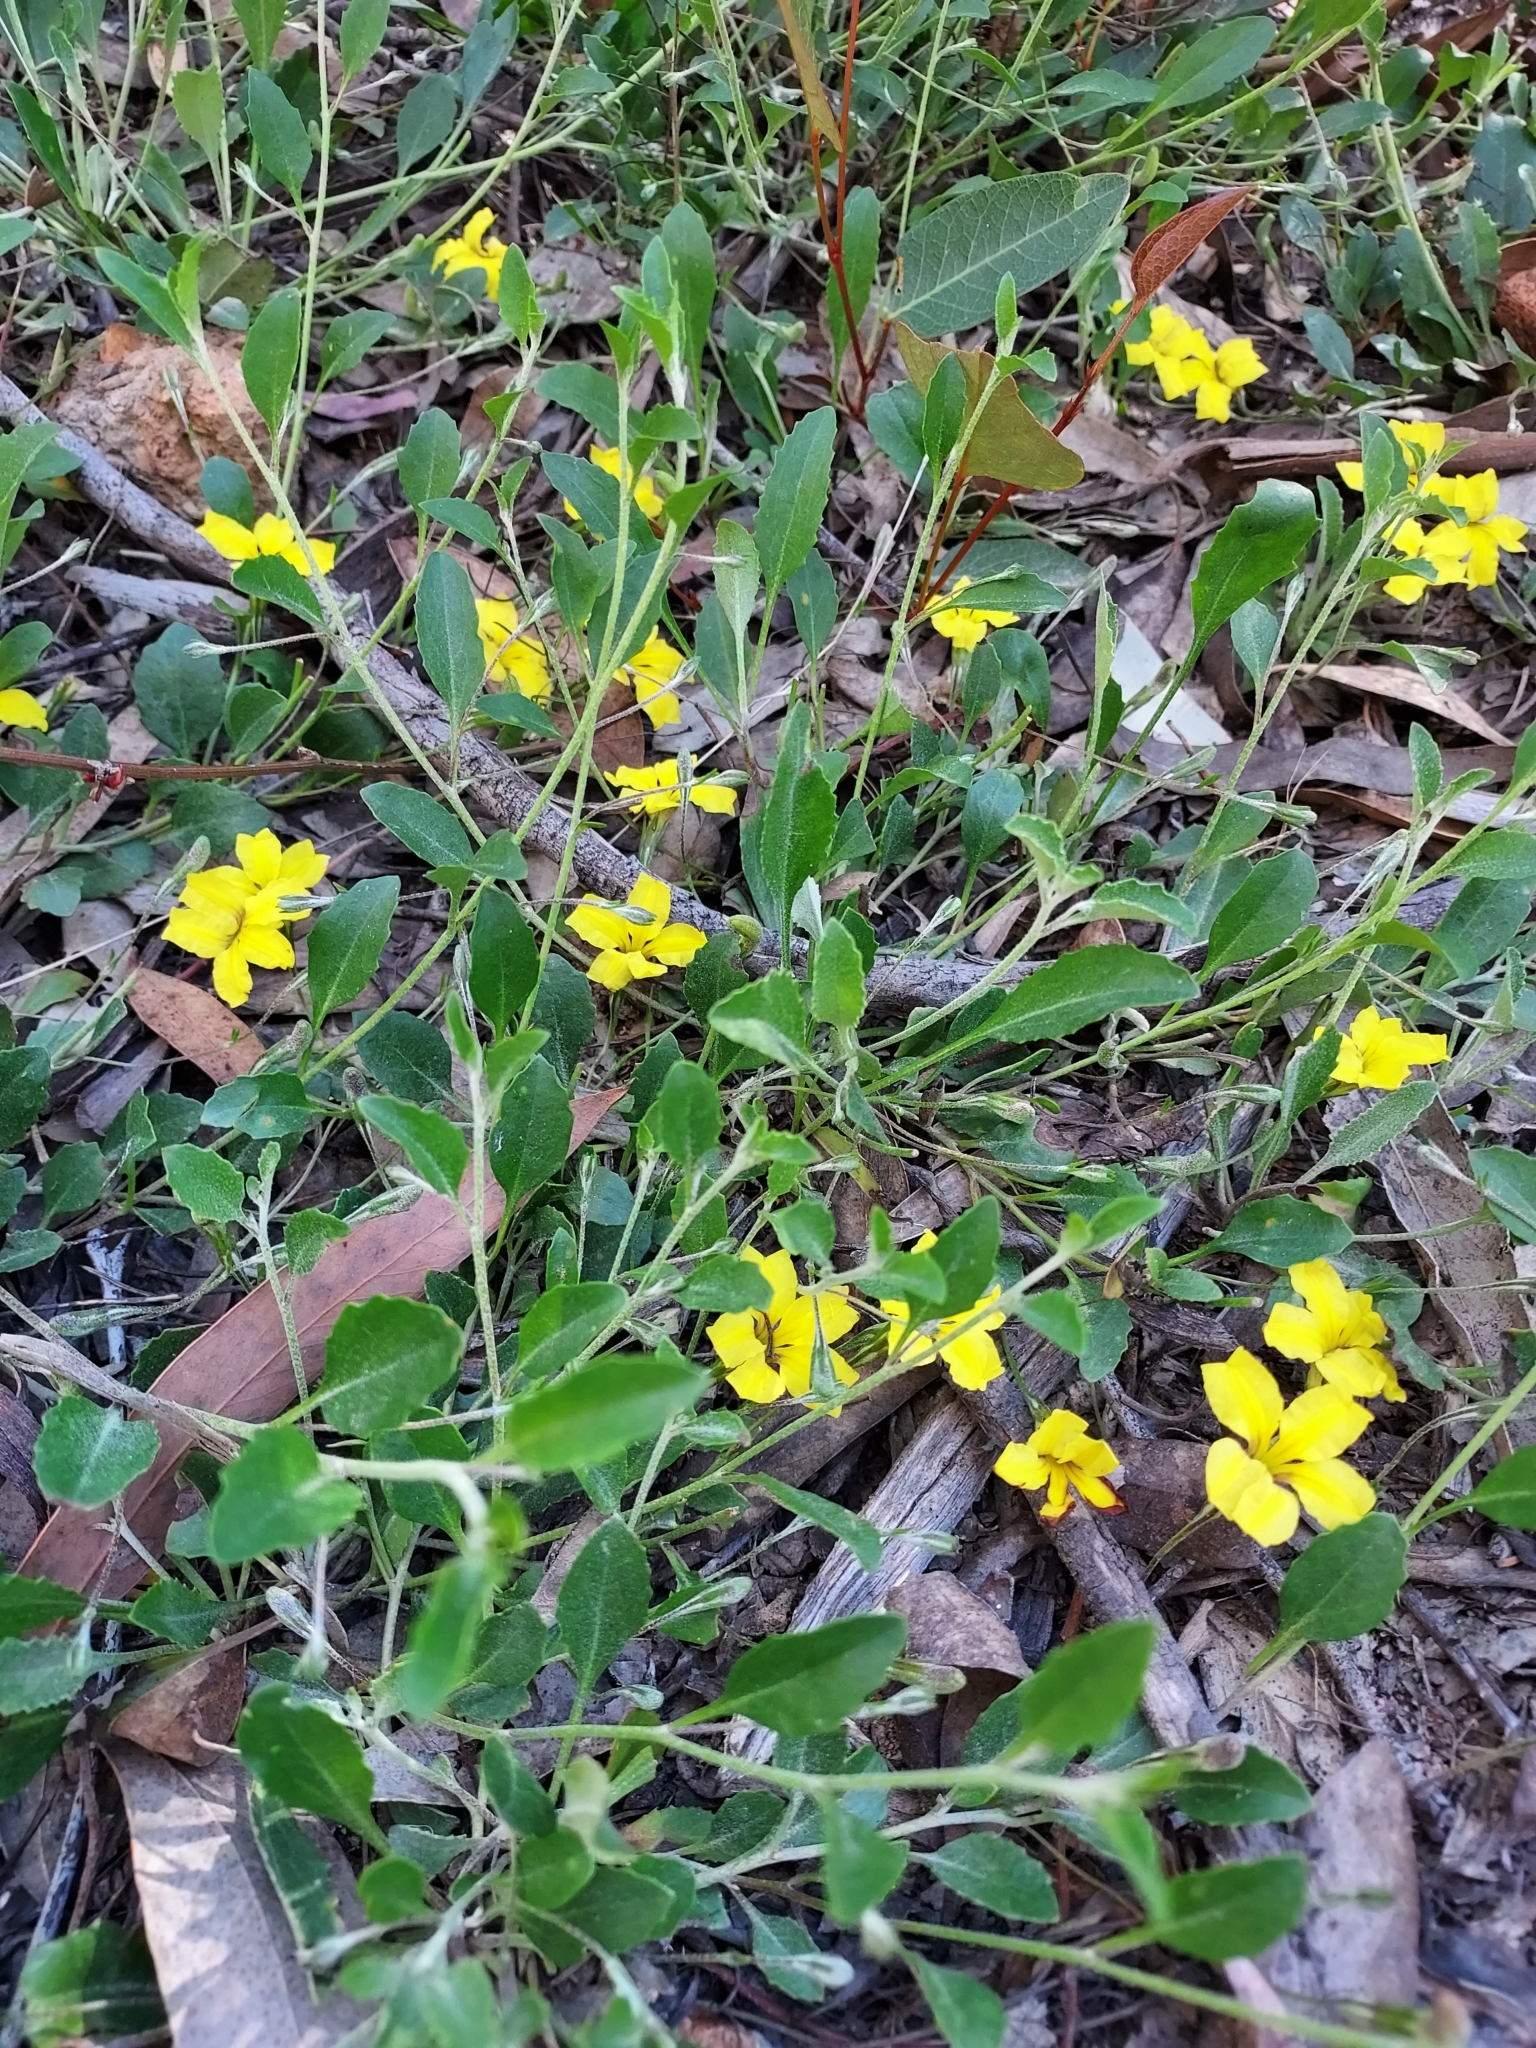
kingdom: Plantae
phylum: Tracheophyta
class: Magnoliopsida
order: Asterales
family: Goodeniaceae
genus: Goodenia
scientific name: Goodenia hederacea
